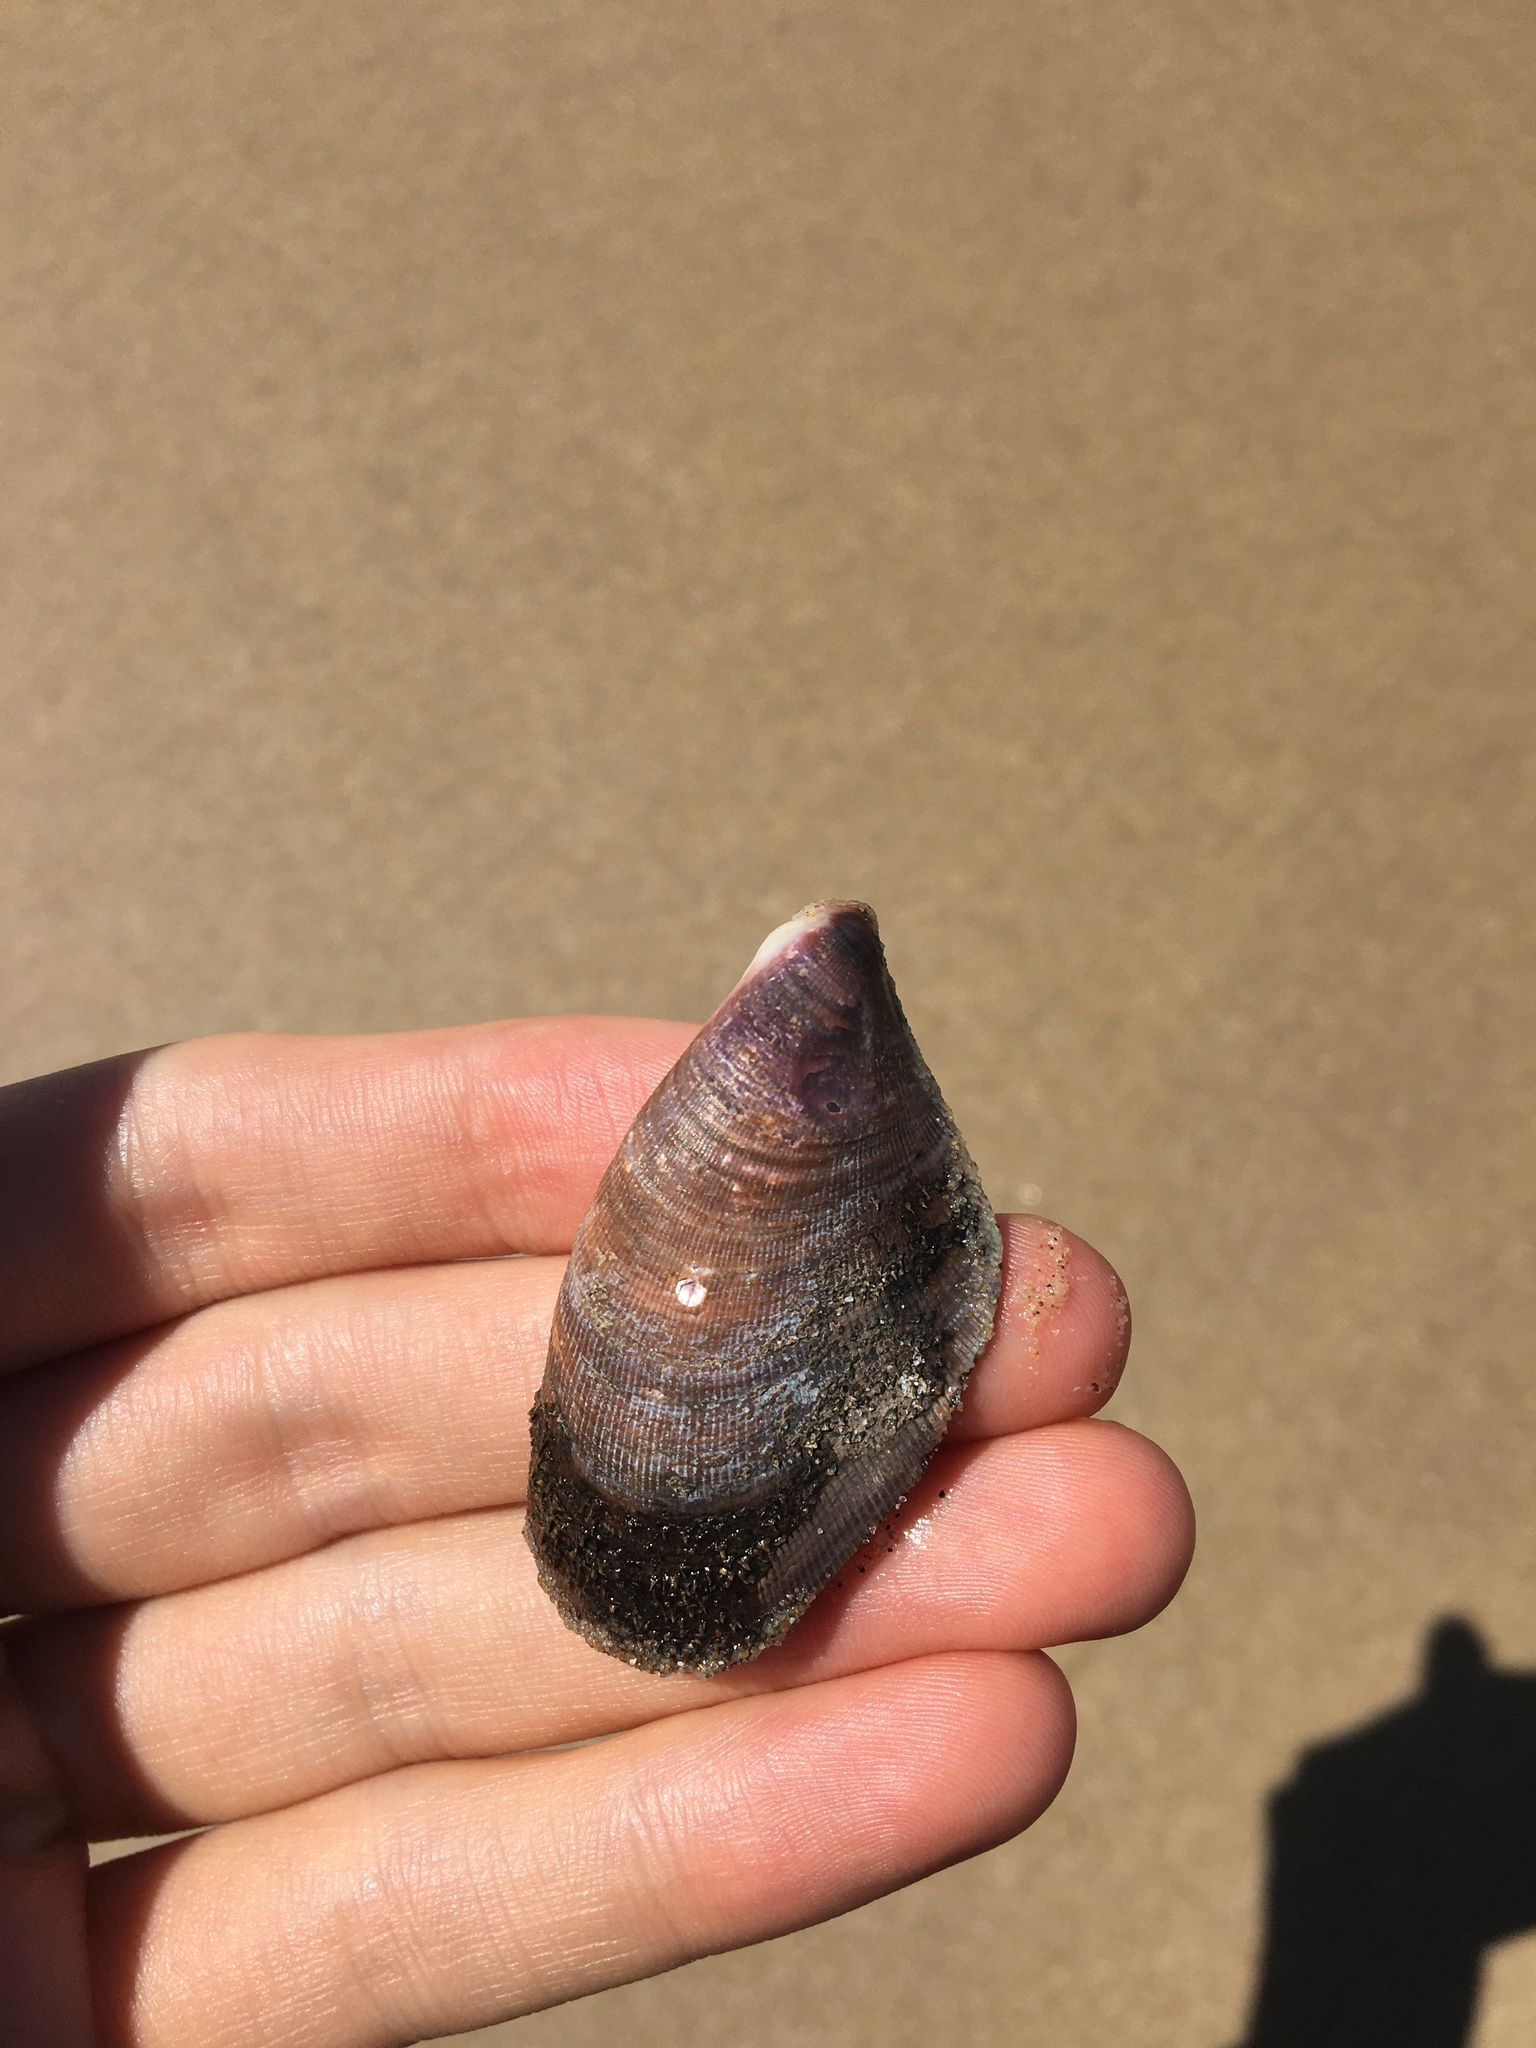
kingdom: Animalia
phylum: Mollusca
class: Bivalvia
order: Mytilida
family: Mytilidae
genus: Trichomya
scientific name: Trichomya hirsuta
